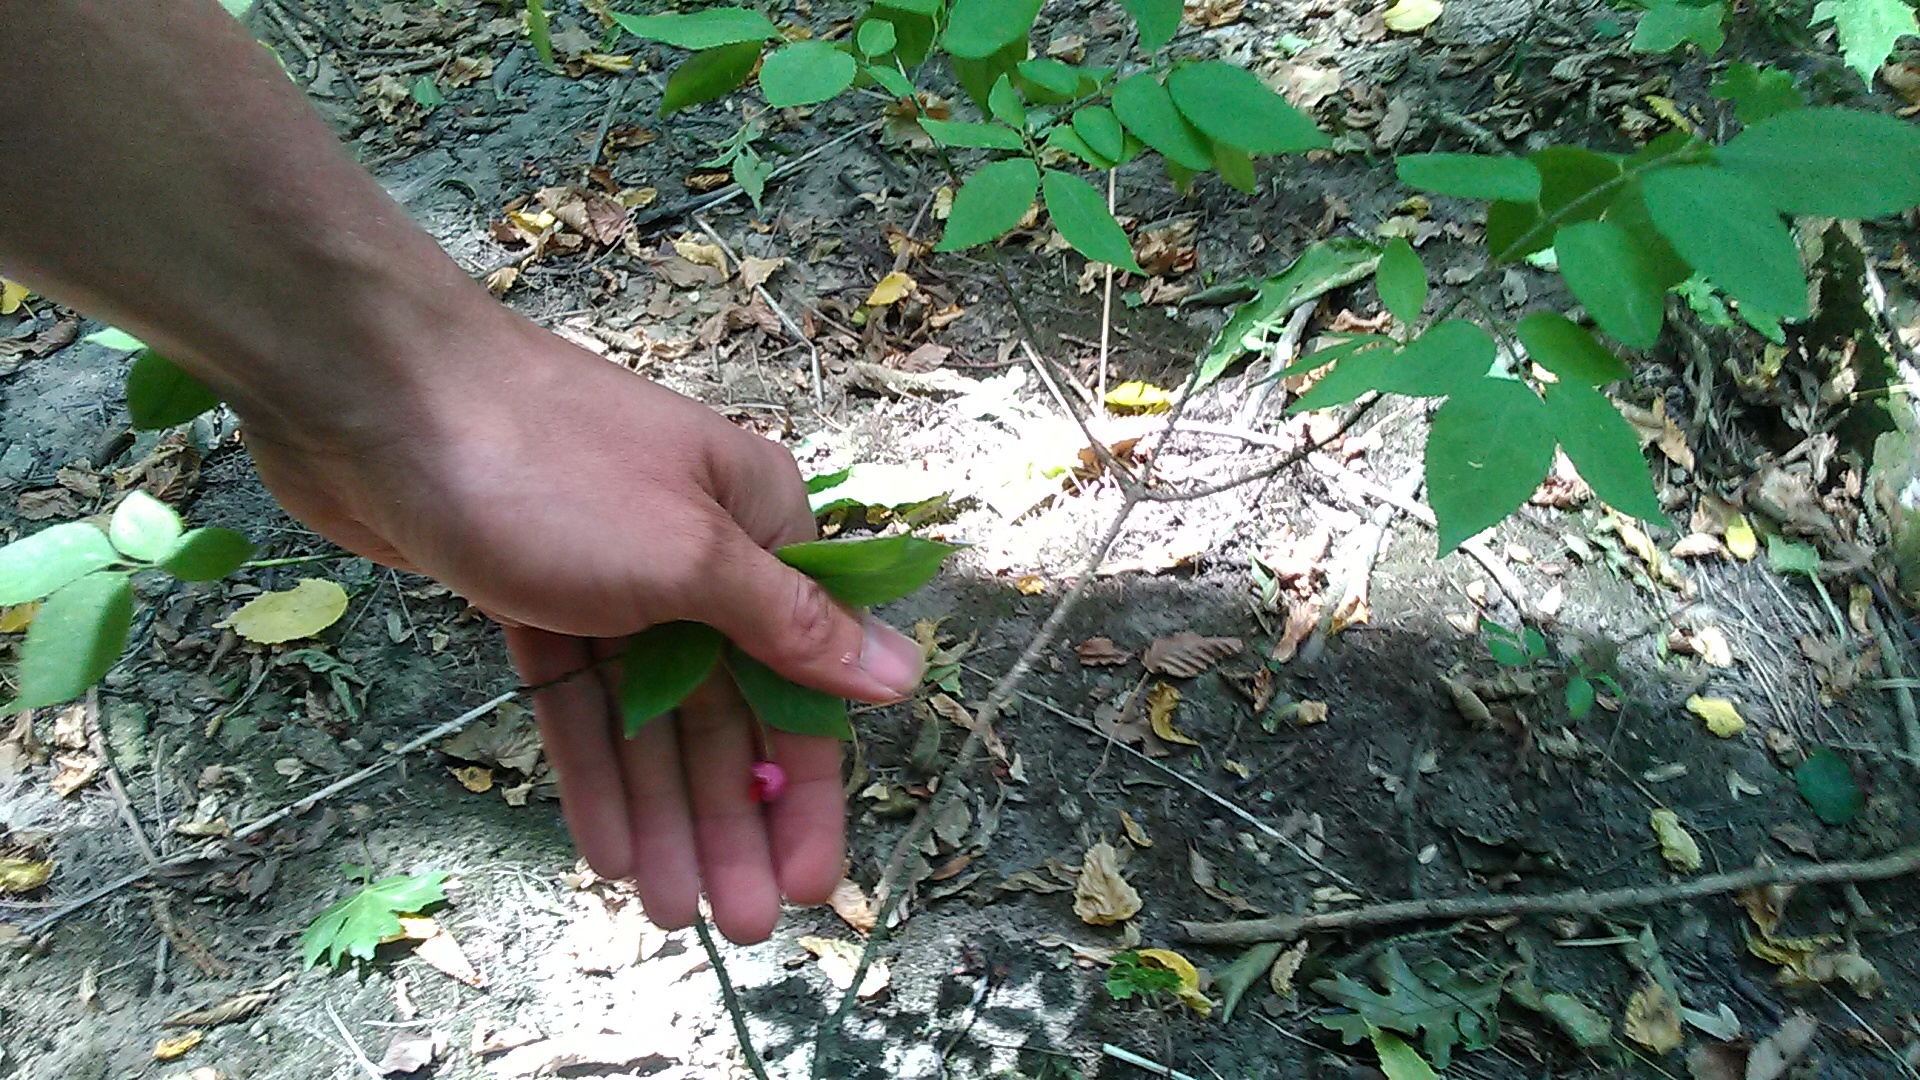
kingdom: Plantae
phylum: Tracheophyta
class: Magnoliopsida
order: Celastrales
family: Celastraceae
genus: Euonymus
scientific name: Euonymus verrucosus
